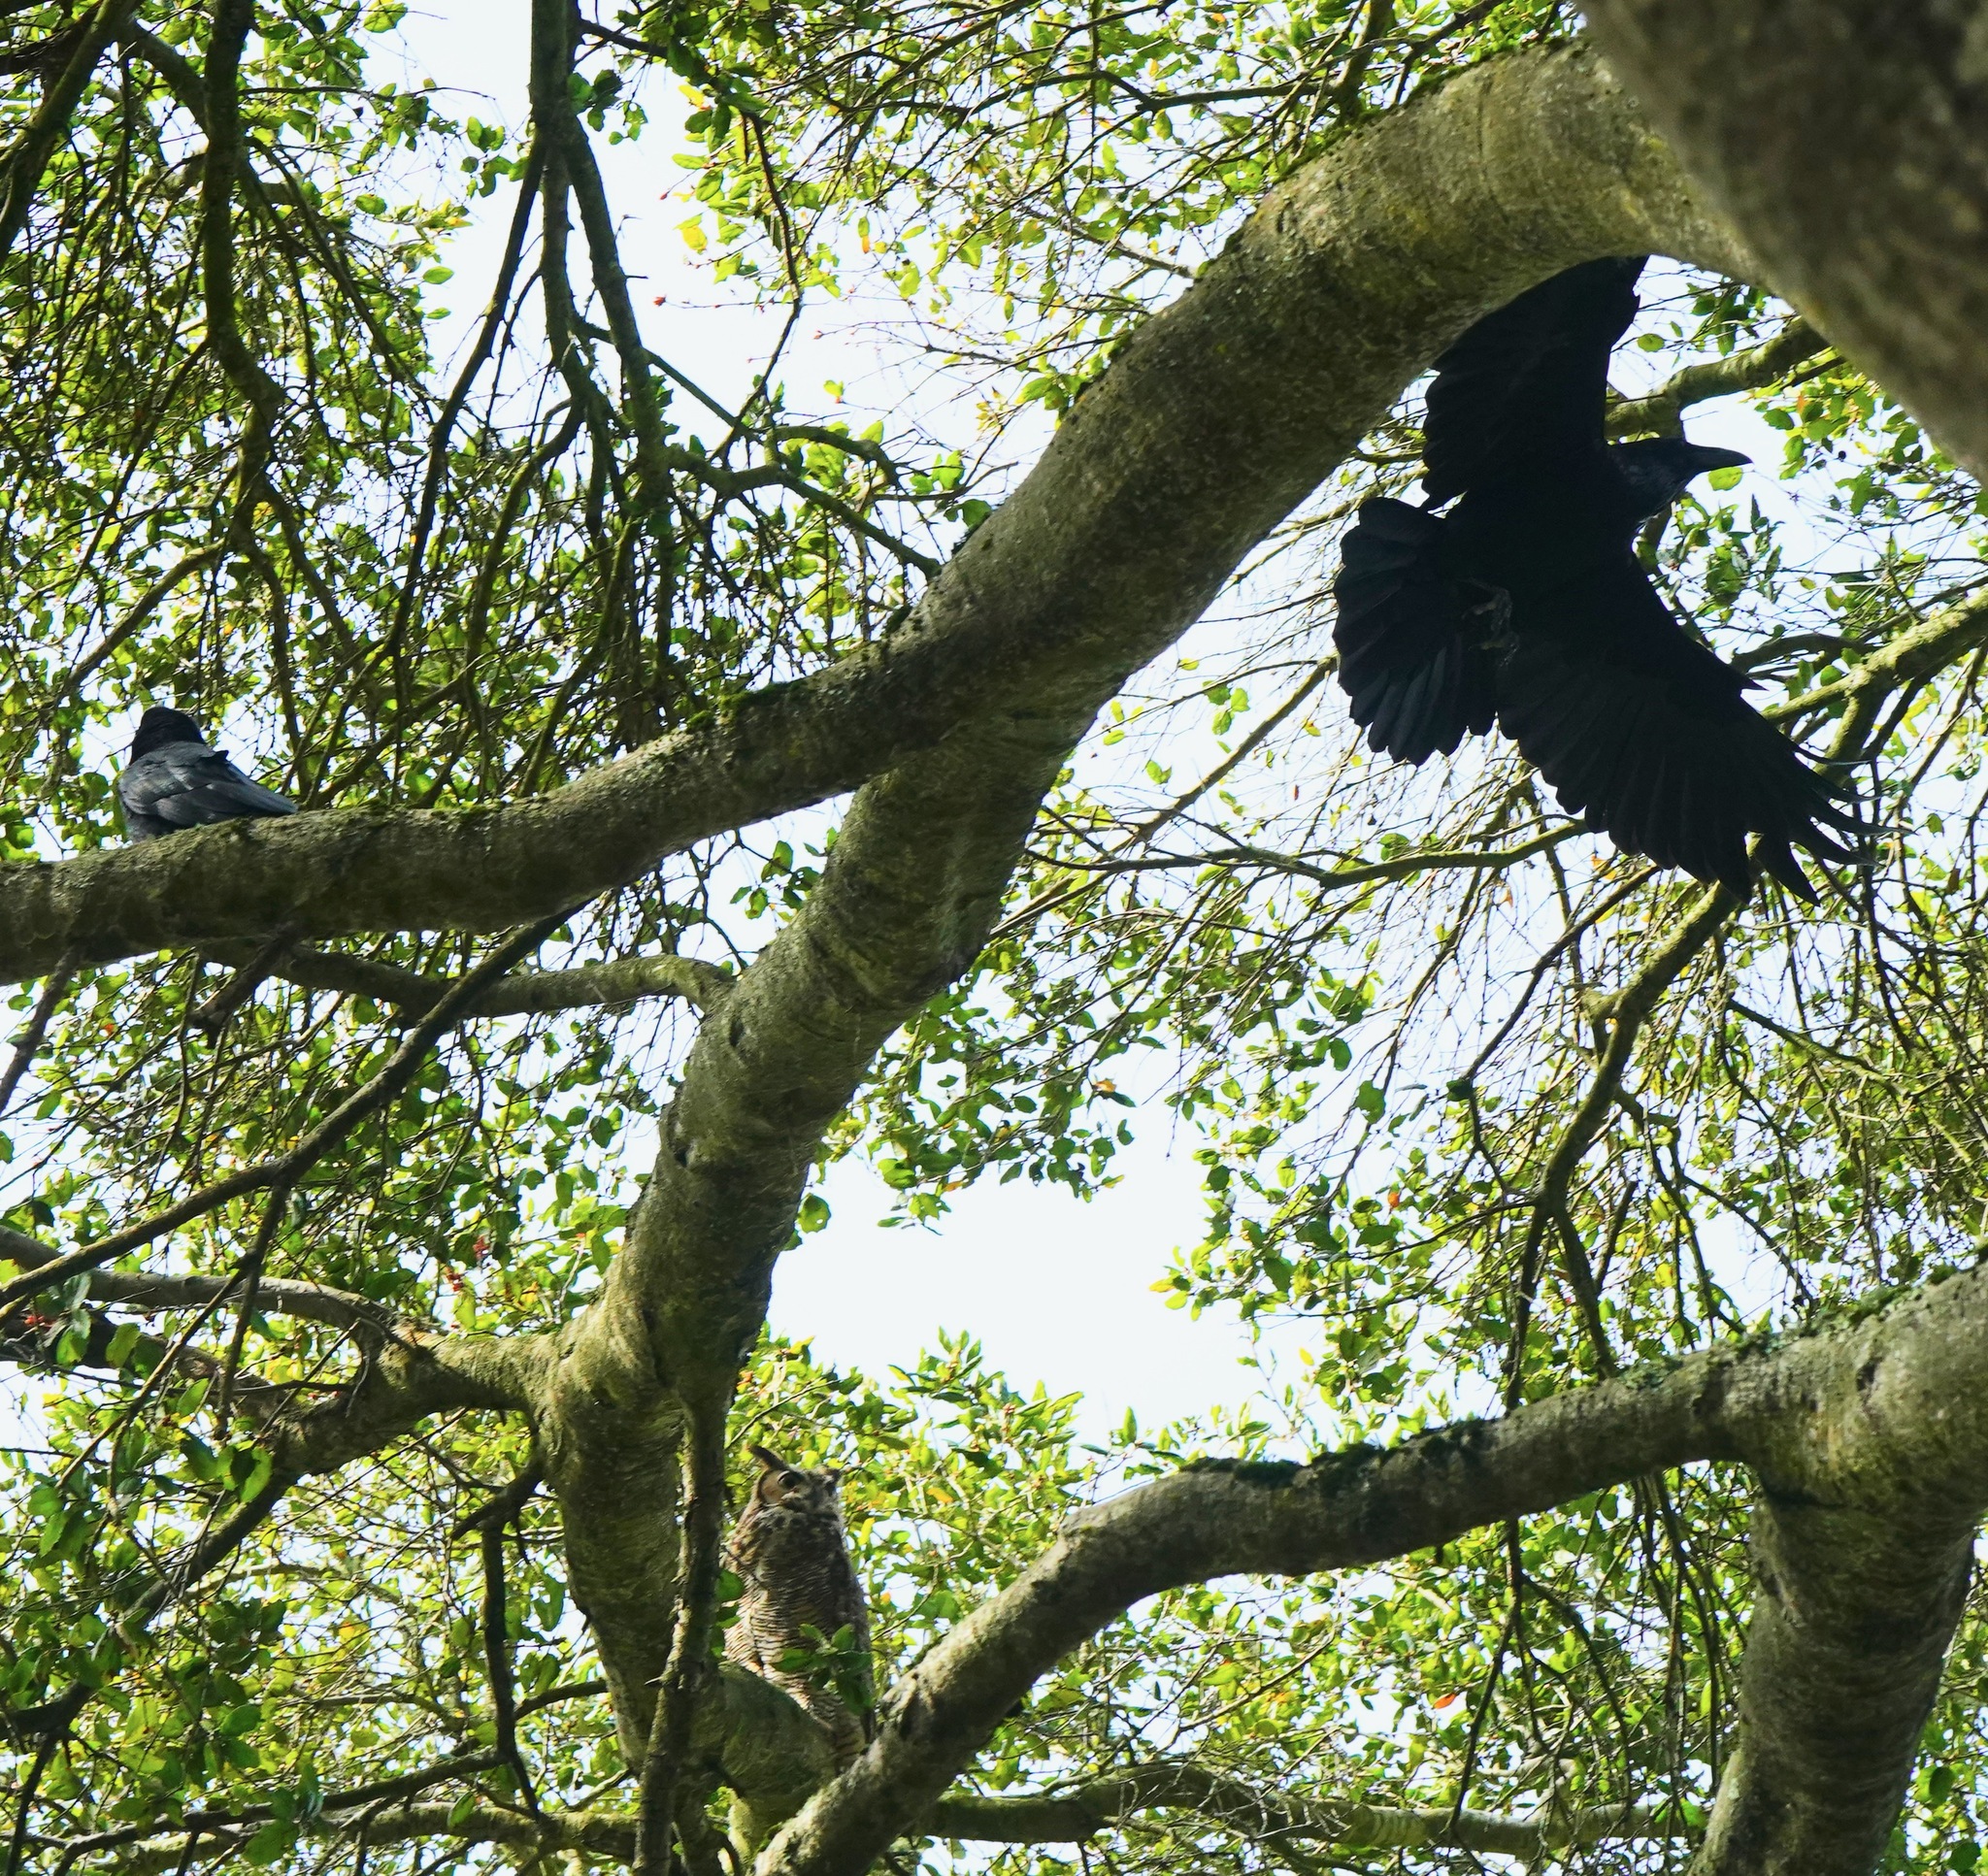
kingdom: Animalia
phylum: Chordata
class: Aves
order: Strigiformes
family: Strigidae
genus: Bubo
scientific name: Bubo virginianus
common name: Great horned owl
